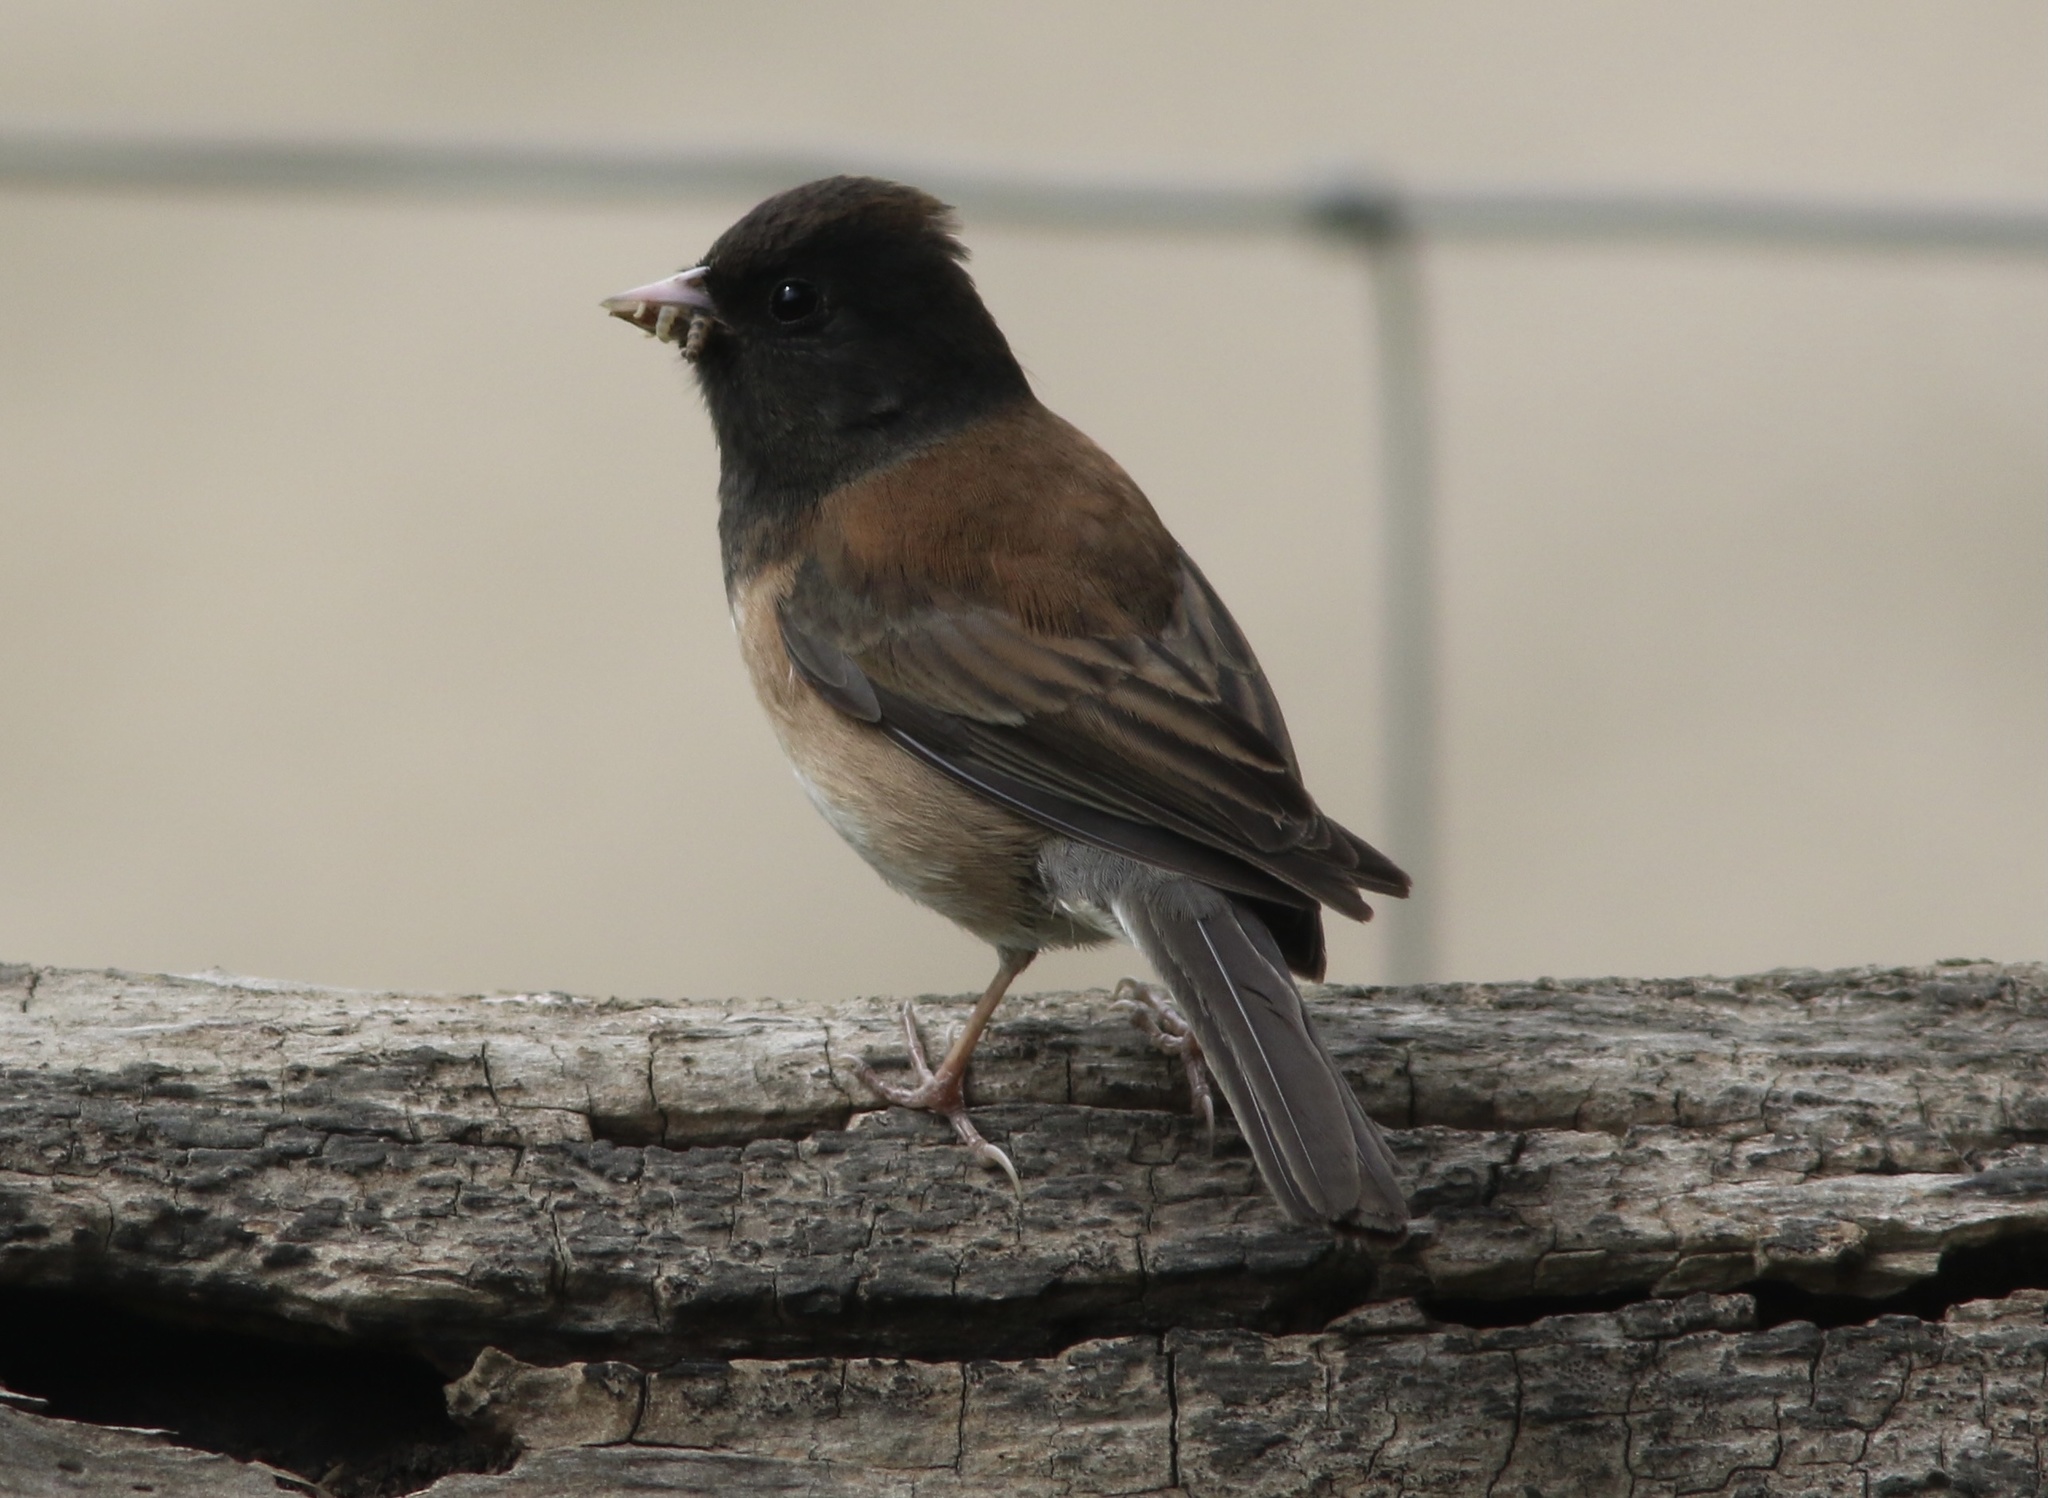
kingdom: Animalia
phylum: Chordata
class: Aves
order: Passeriformes
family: Passerellidae
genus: Junco
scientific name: Junco hyemalis
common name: Dark-eyed junco
